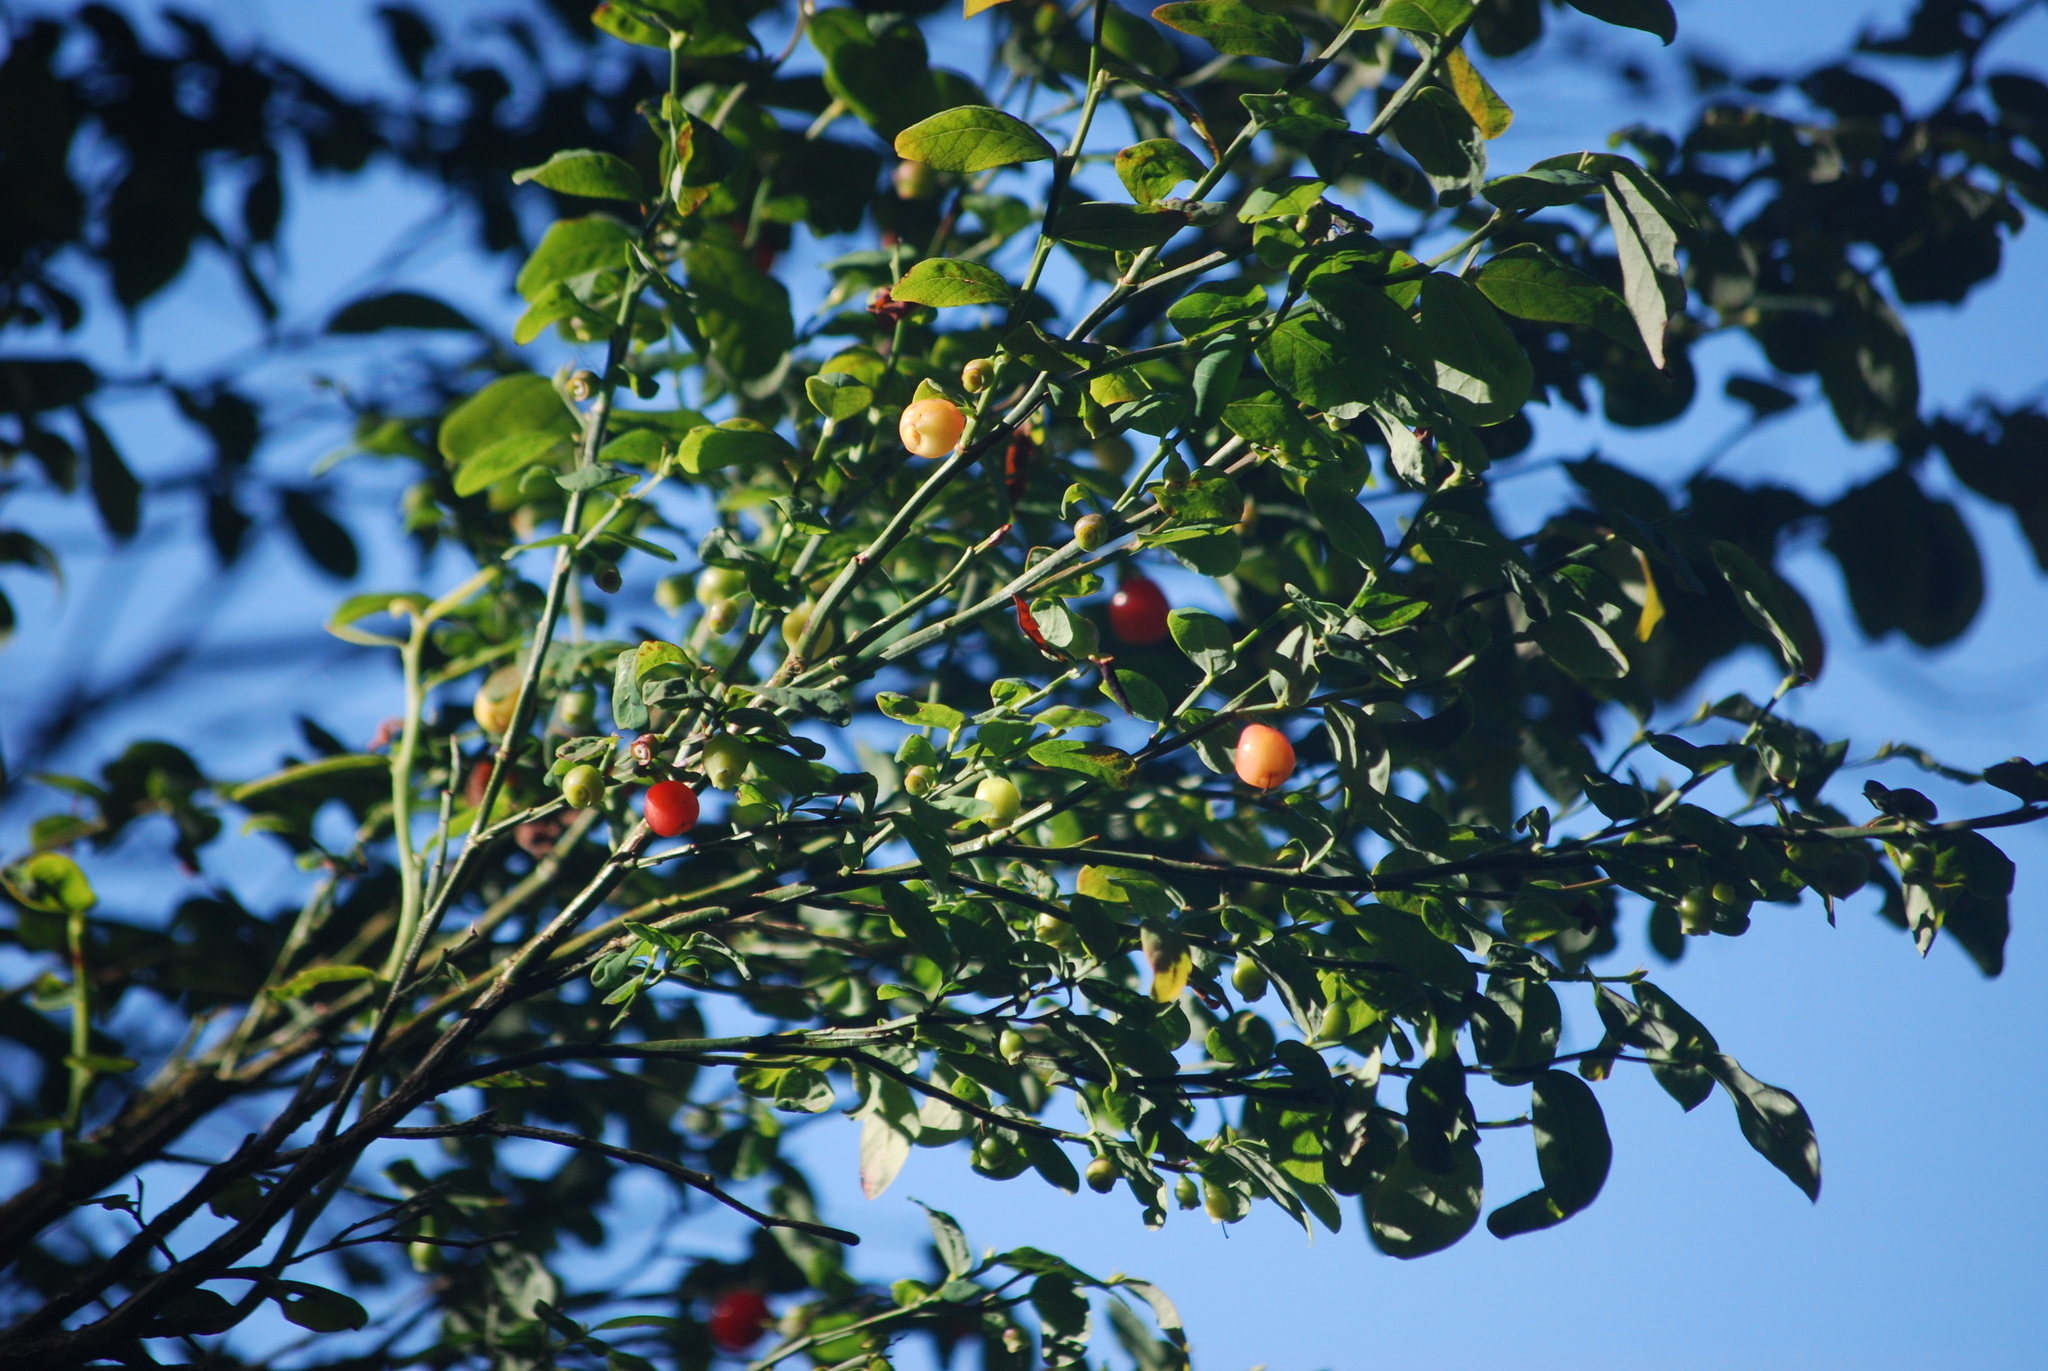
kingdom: Plantae
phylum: Tracheophyta
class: Magnoliopsida
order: Ericales
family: Ericaceae
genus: Vaccinium
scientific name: Vaccinium parvifolium
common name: Red-huckleberry
